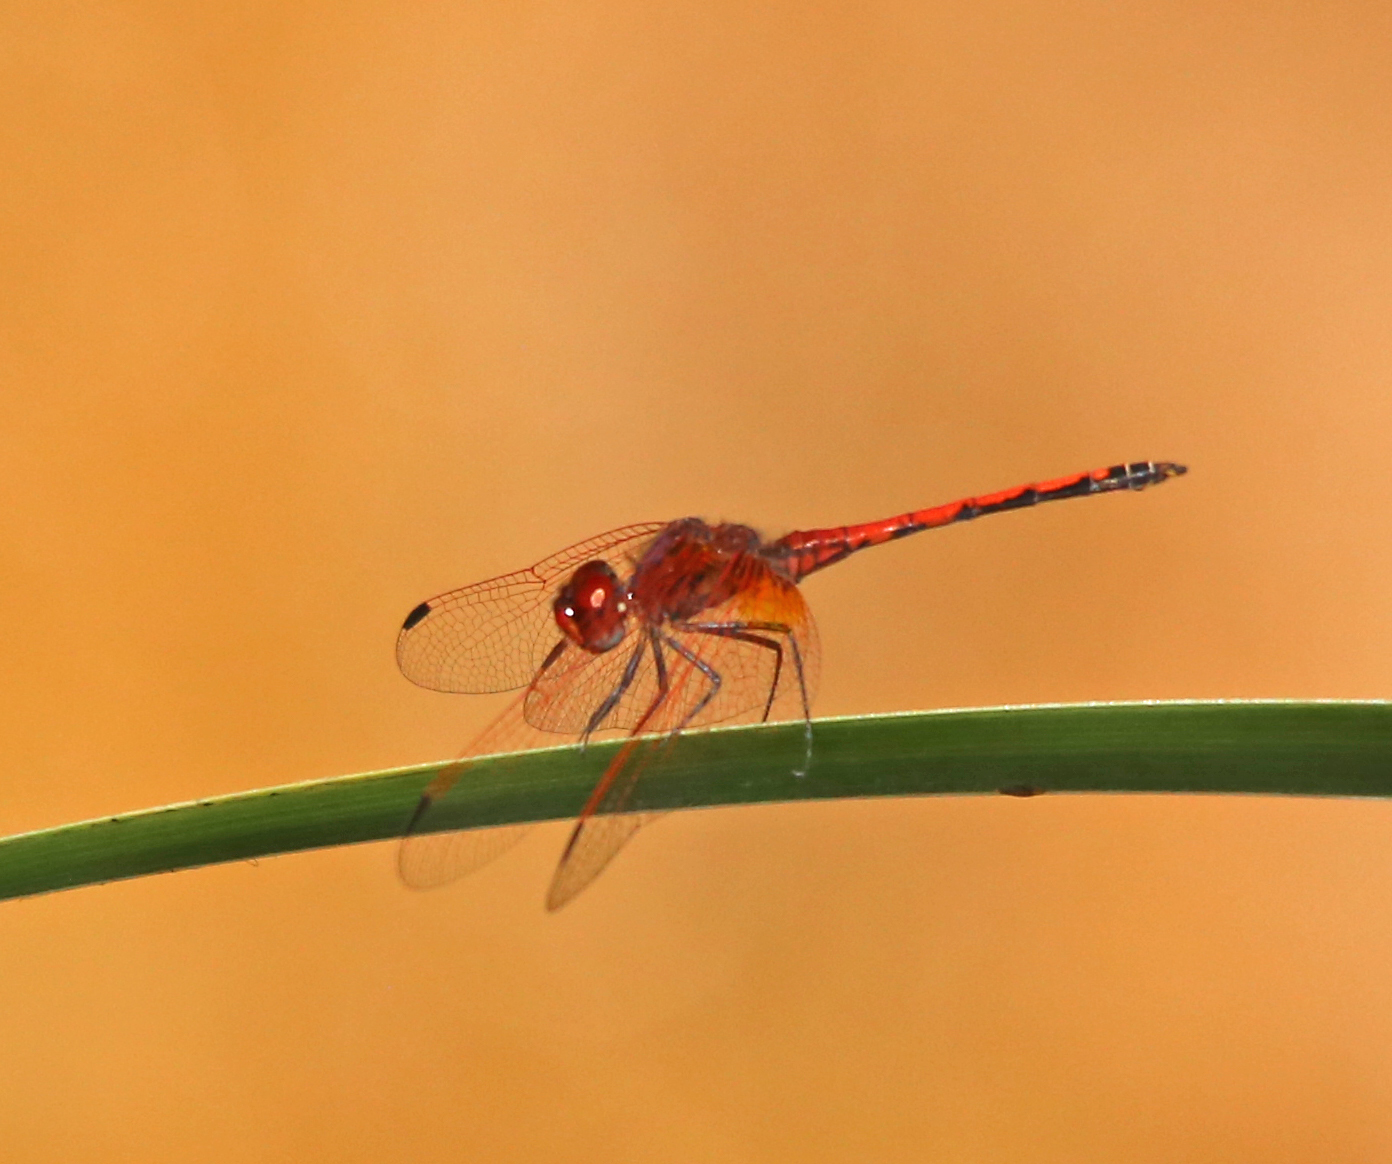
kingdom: Animalia
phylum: Arthropoda
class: Insecta
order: Odonata
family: Libellulidae
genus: Trithemis
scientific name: Trithemis arteriosa
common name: Red-veined dropwing
